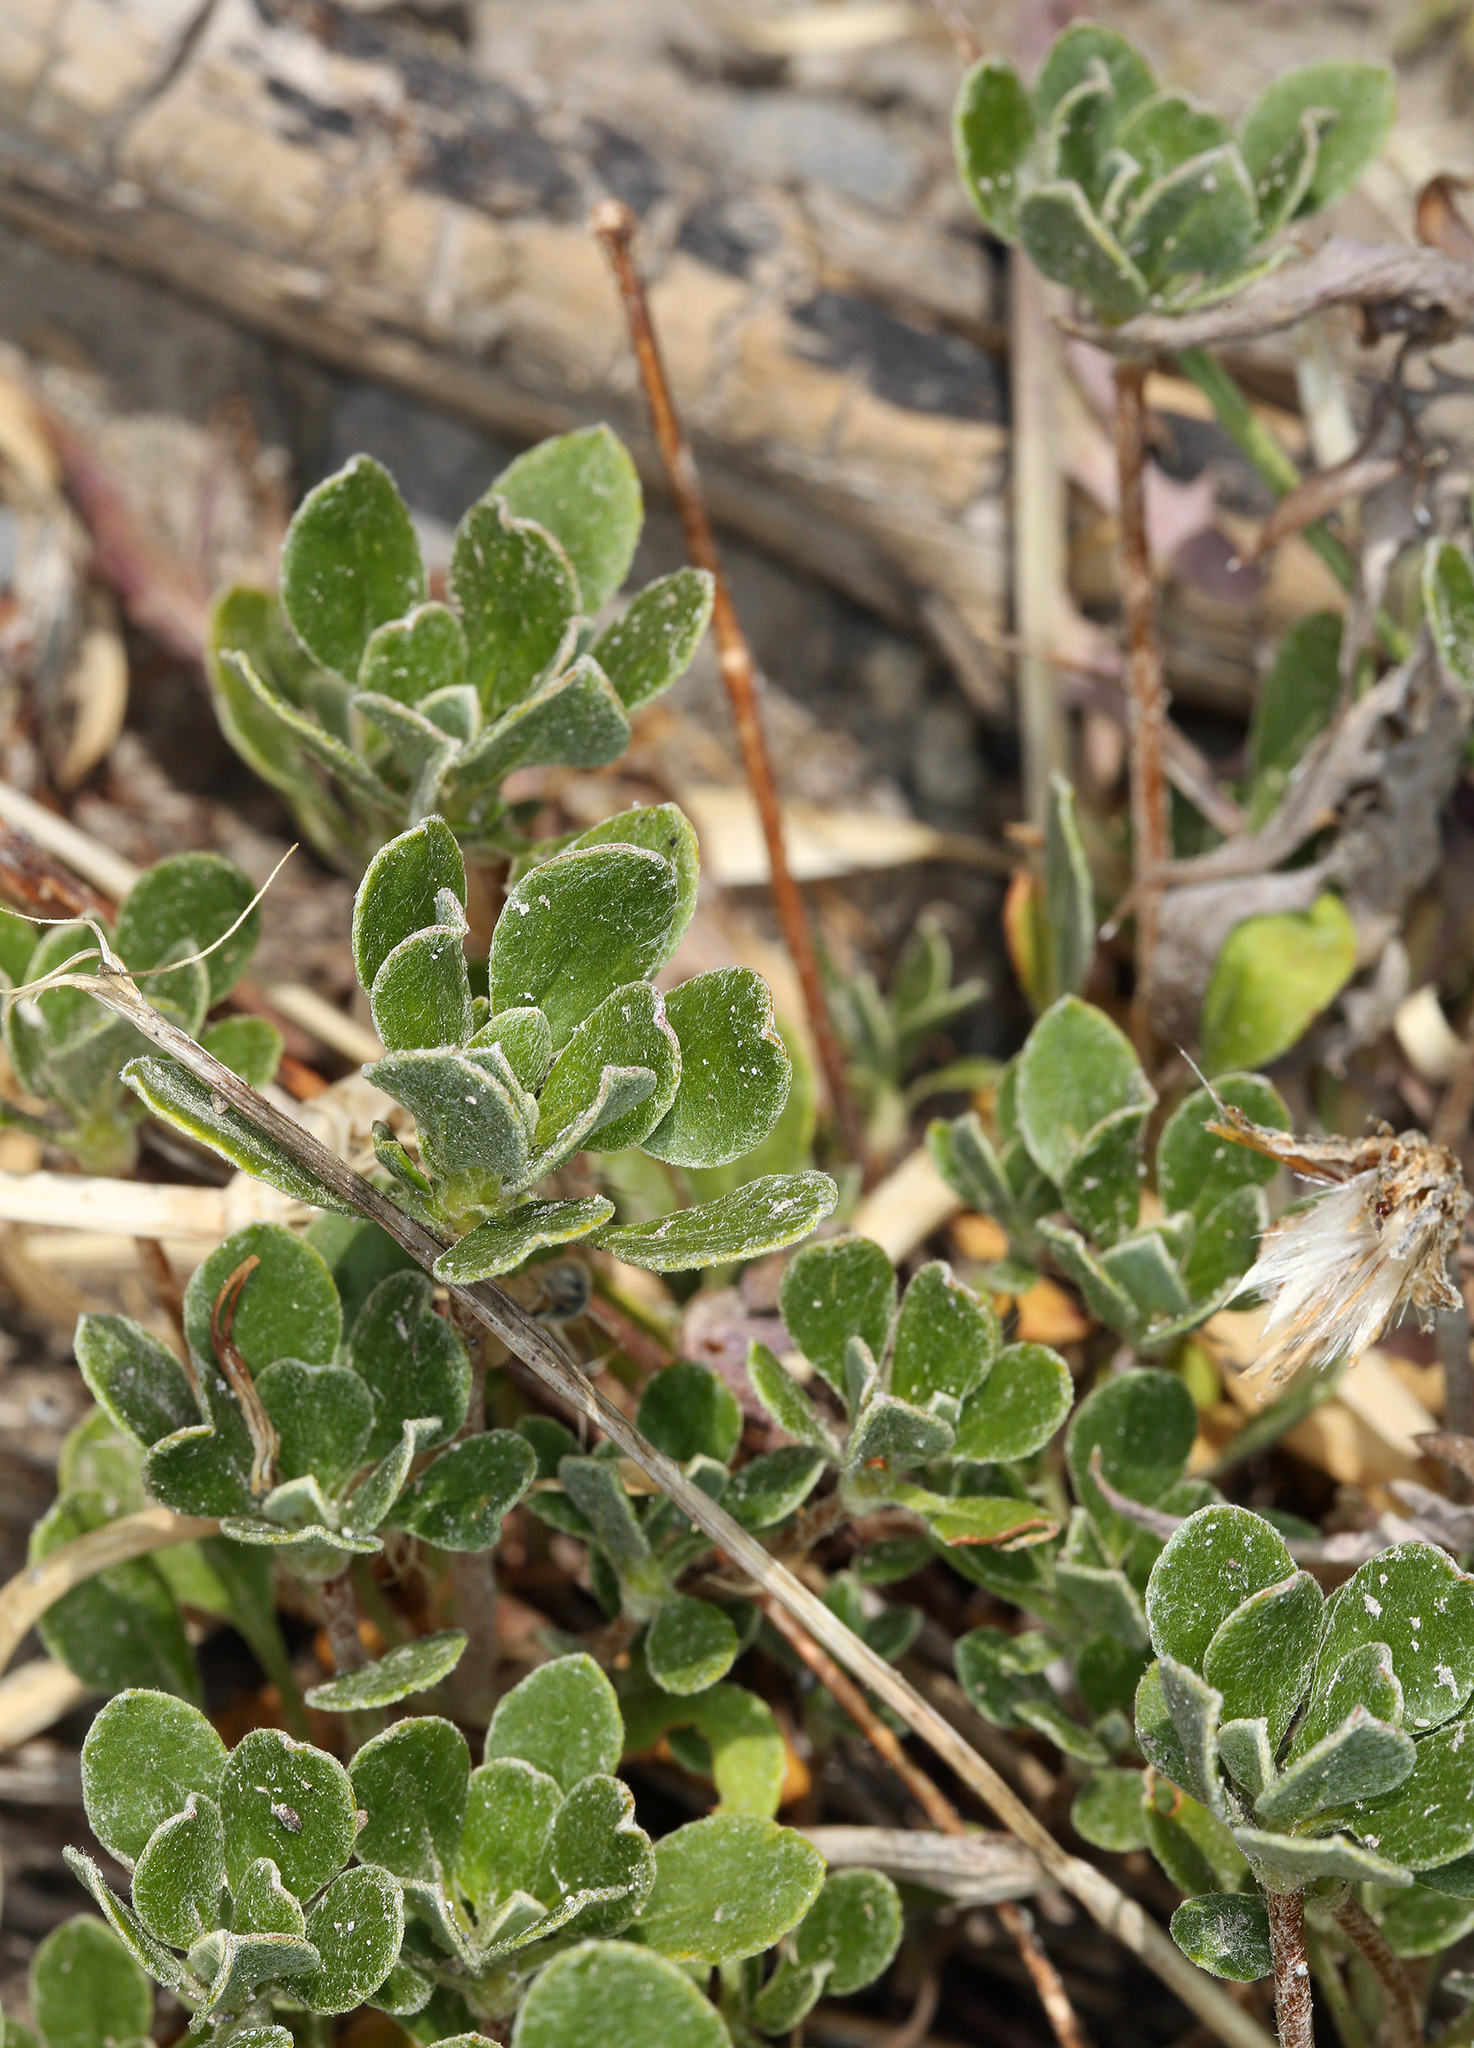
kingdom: Plantae
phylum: Tracheophyta
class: Magnoliopsida
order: Caryophyllales
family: Polygonaceae
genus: Eriogonum
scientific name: Eriogonum umbellatum
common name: Sulfur-buckwheat
